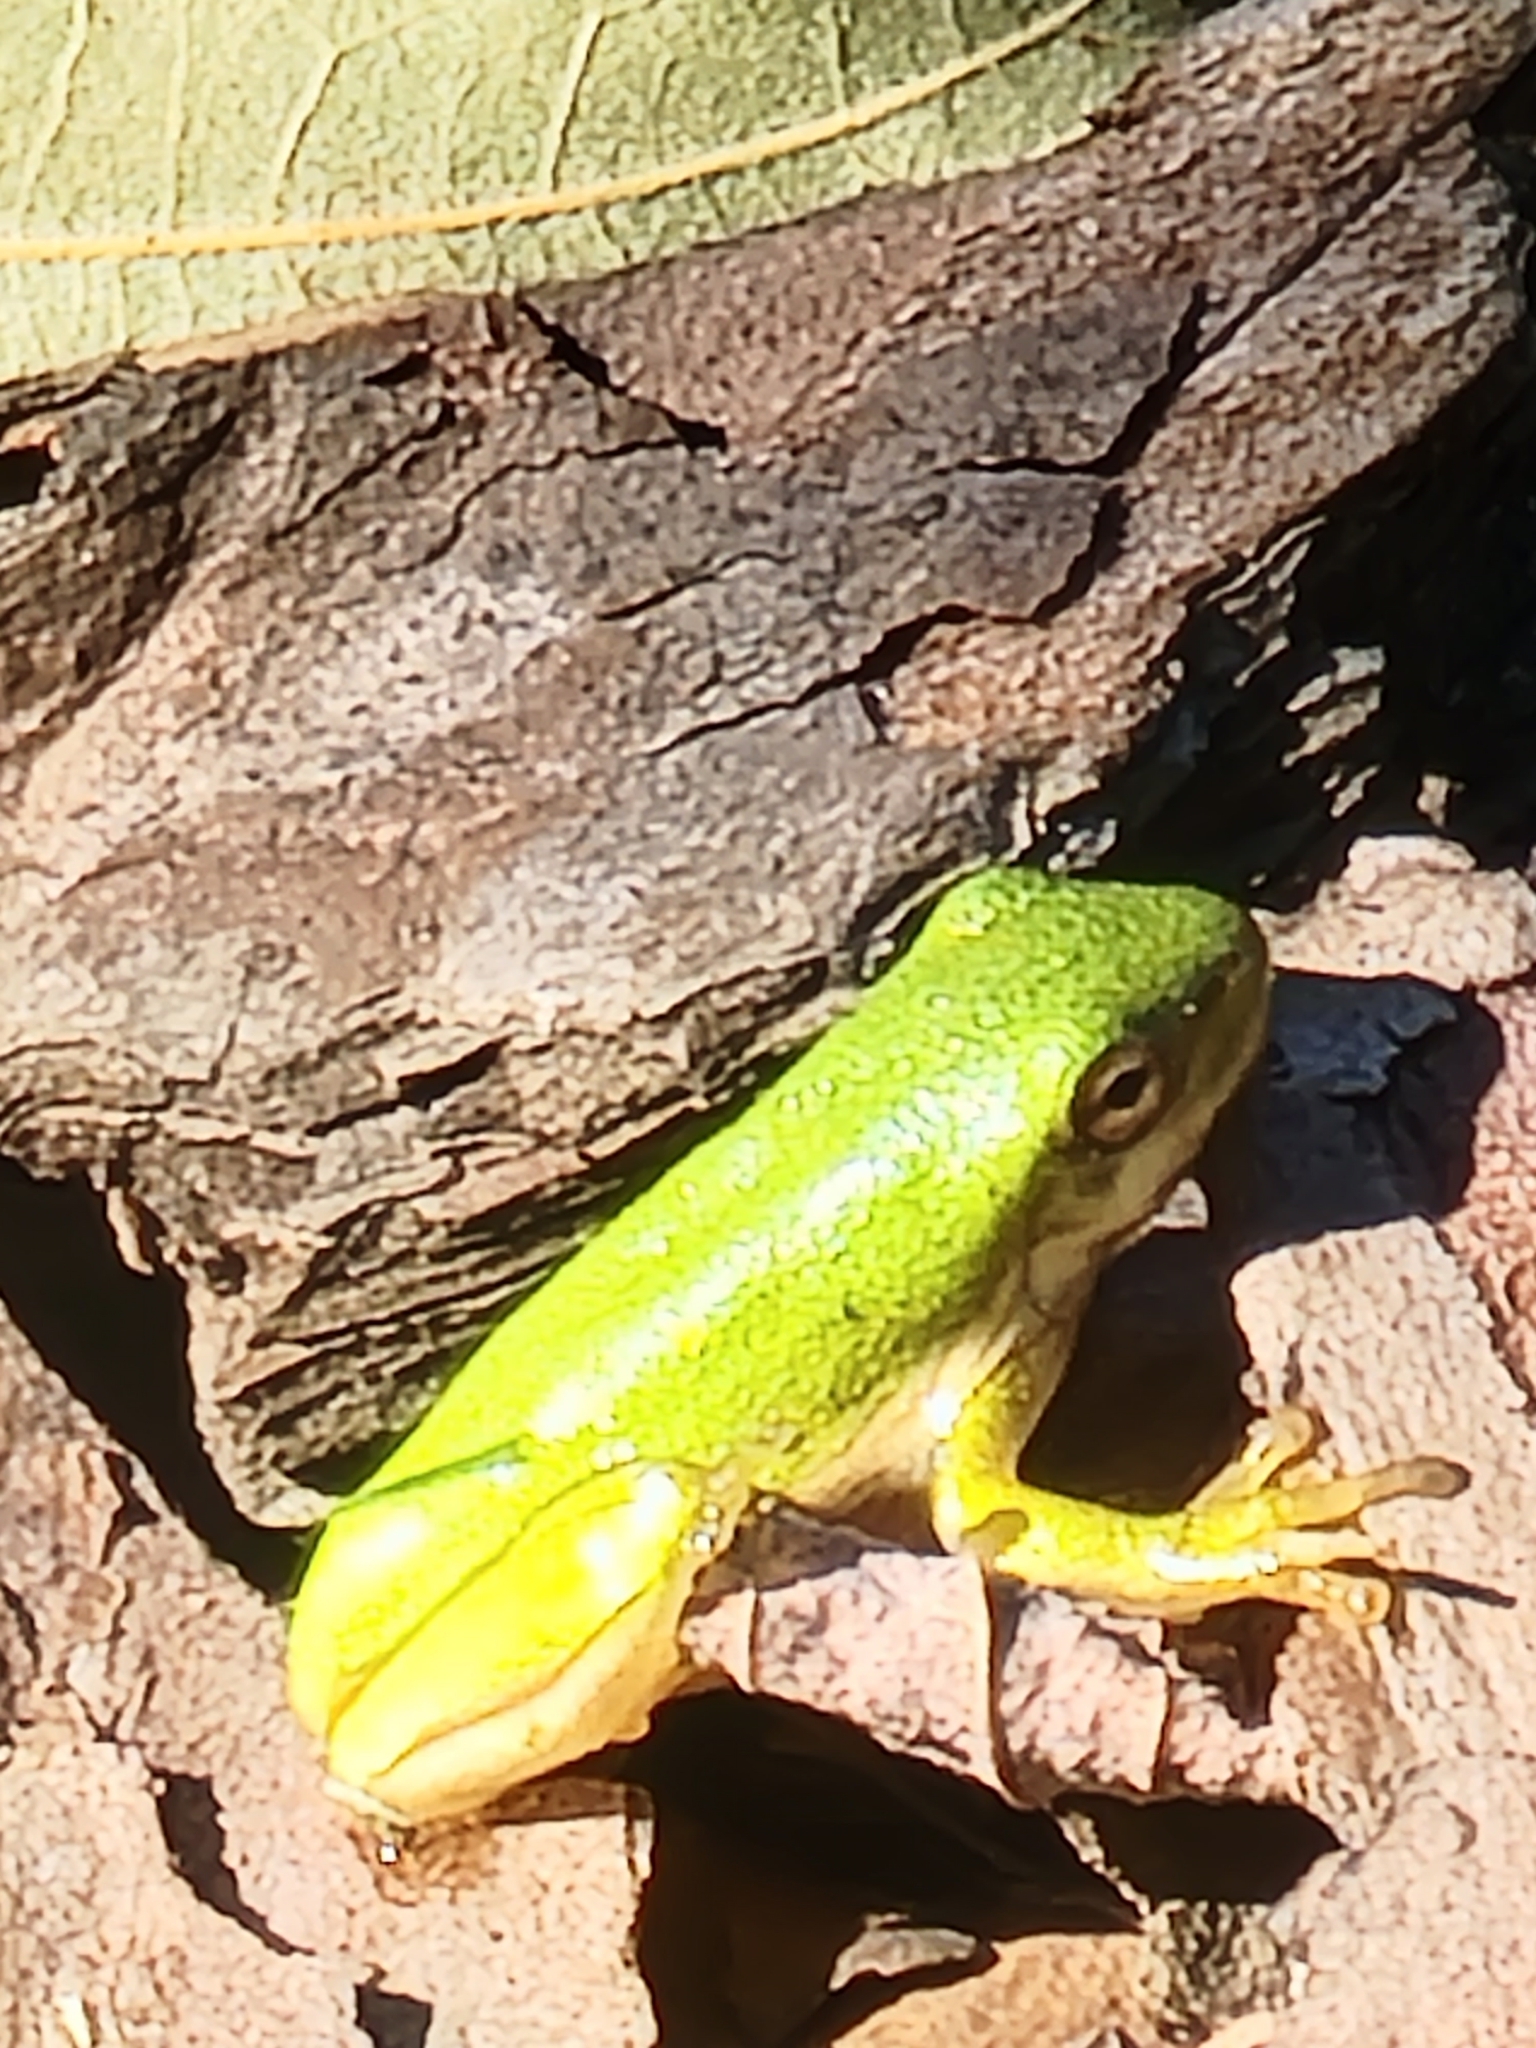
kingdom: Animalia
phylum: Chordata
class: Amphibia
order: Anura
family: Hylidae
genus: Dryophytes
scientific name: Dryophytes cinereus
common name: Green treefrog
